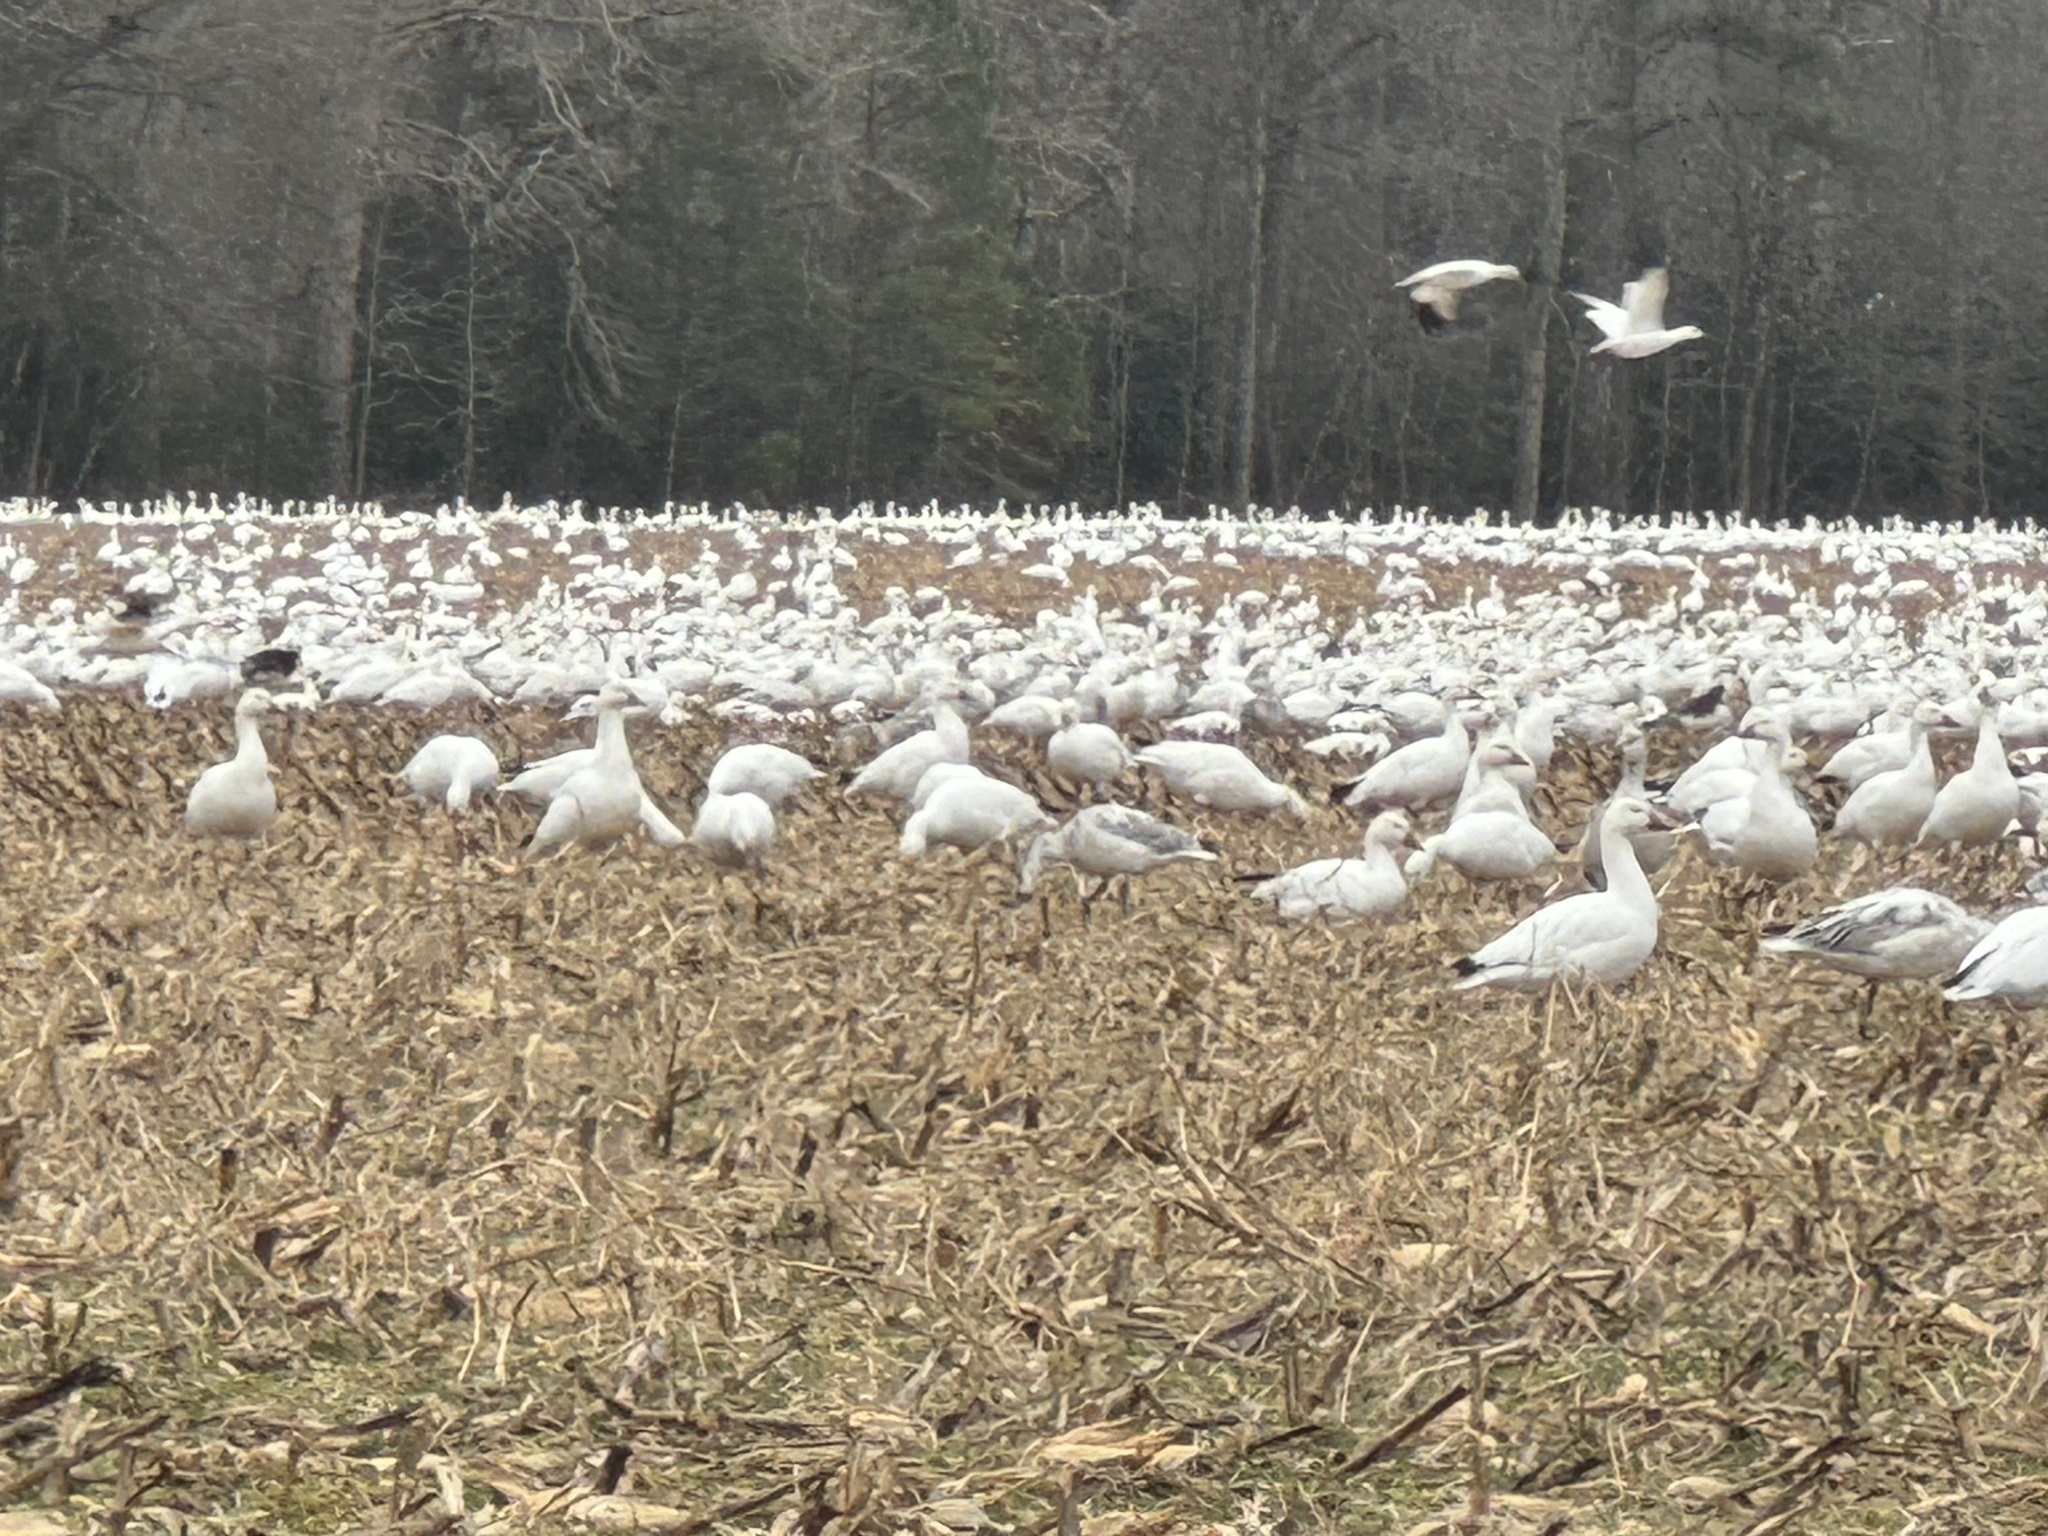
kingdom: Animalia
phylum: Chordata
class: Aves
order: Anseriformes
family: Anatidae
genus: Anser
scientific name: Anser caerulescens
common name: Snow goose
